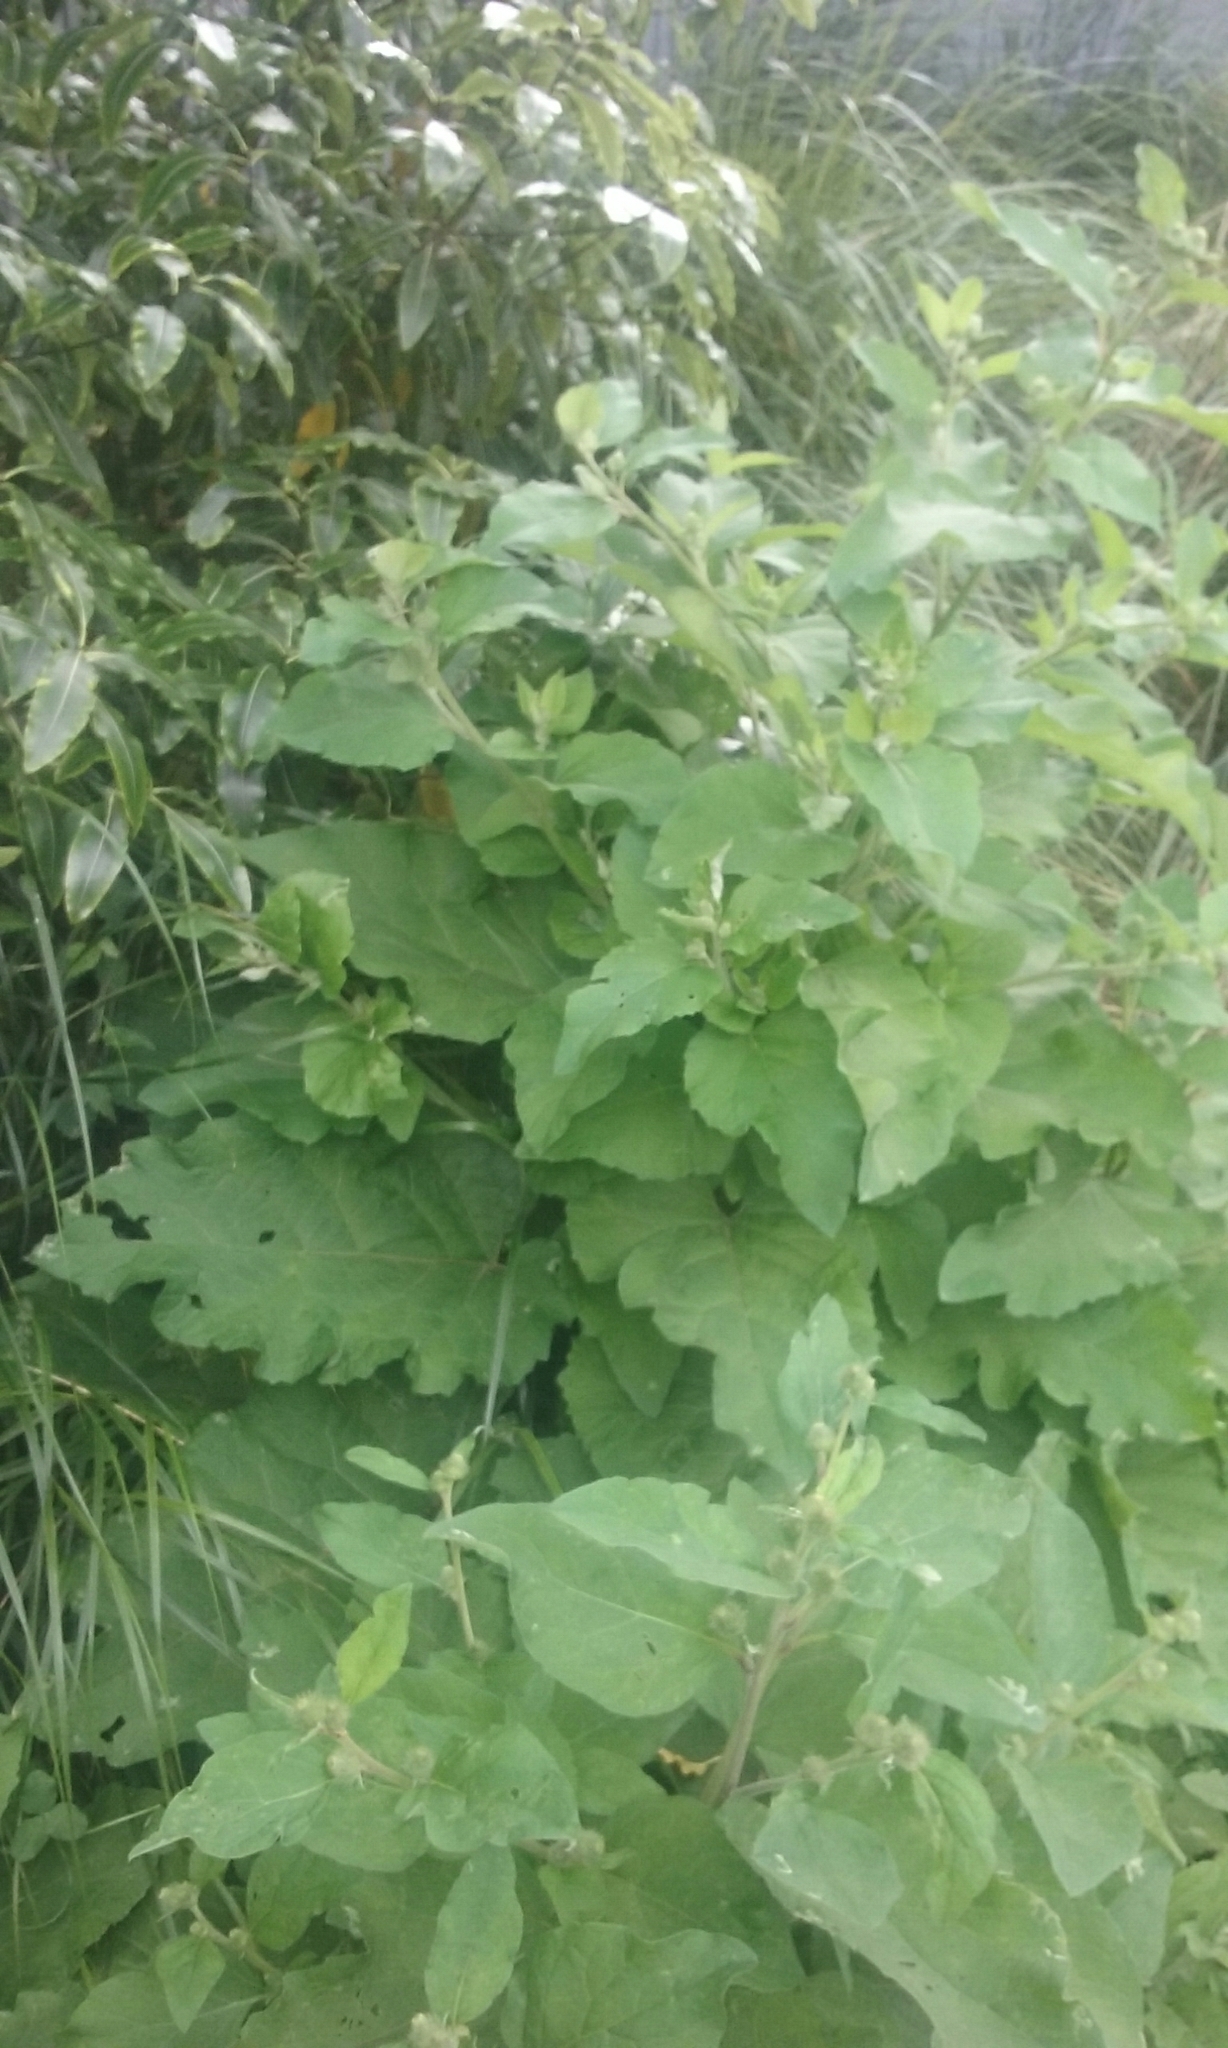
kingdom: Plantae
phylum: Tracheophyta
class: Magnoliopsida
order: Asterales
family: Asteraceae
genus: Arctium
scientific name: Arctium minus
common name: Lesser burdock
